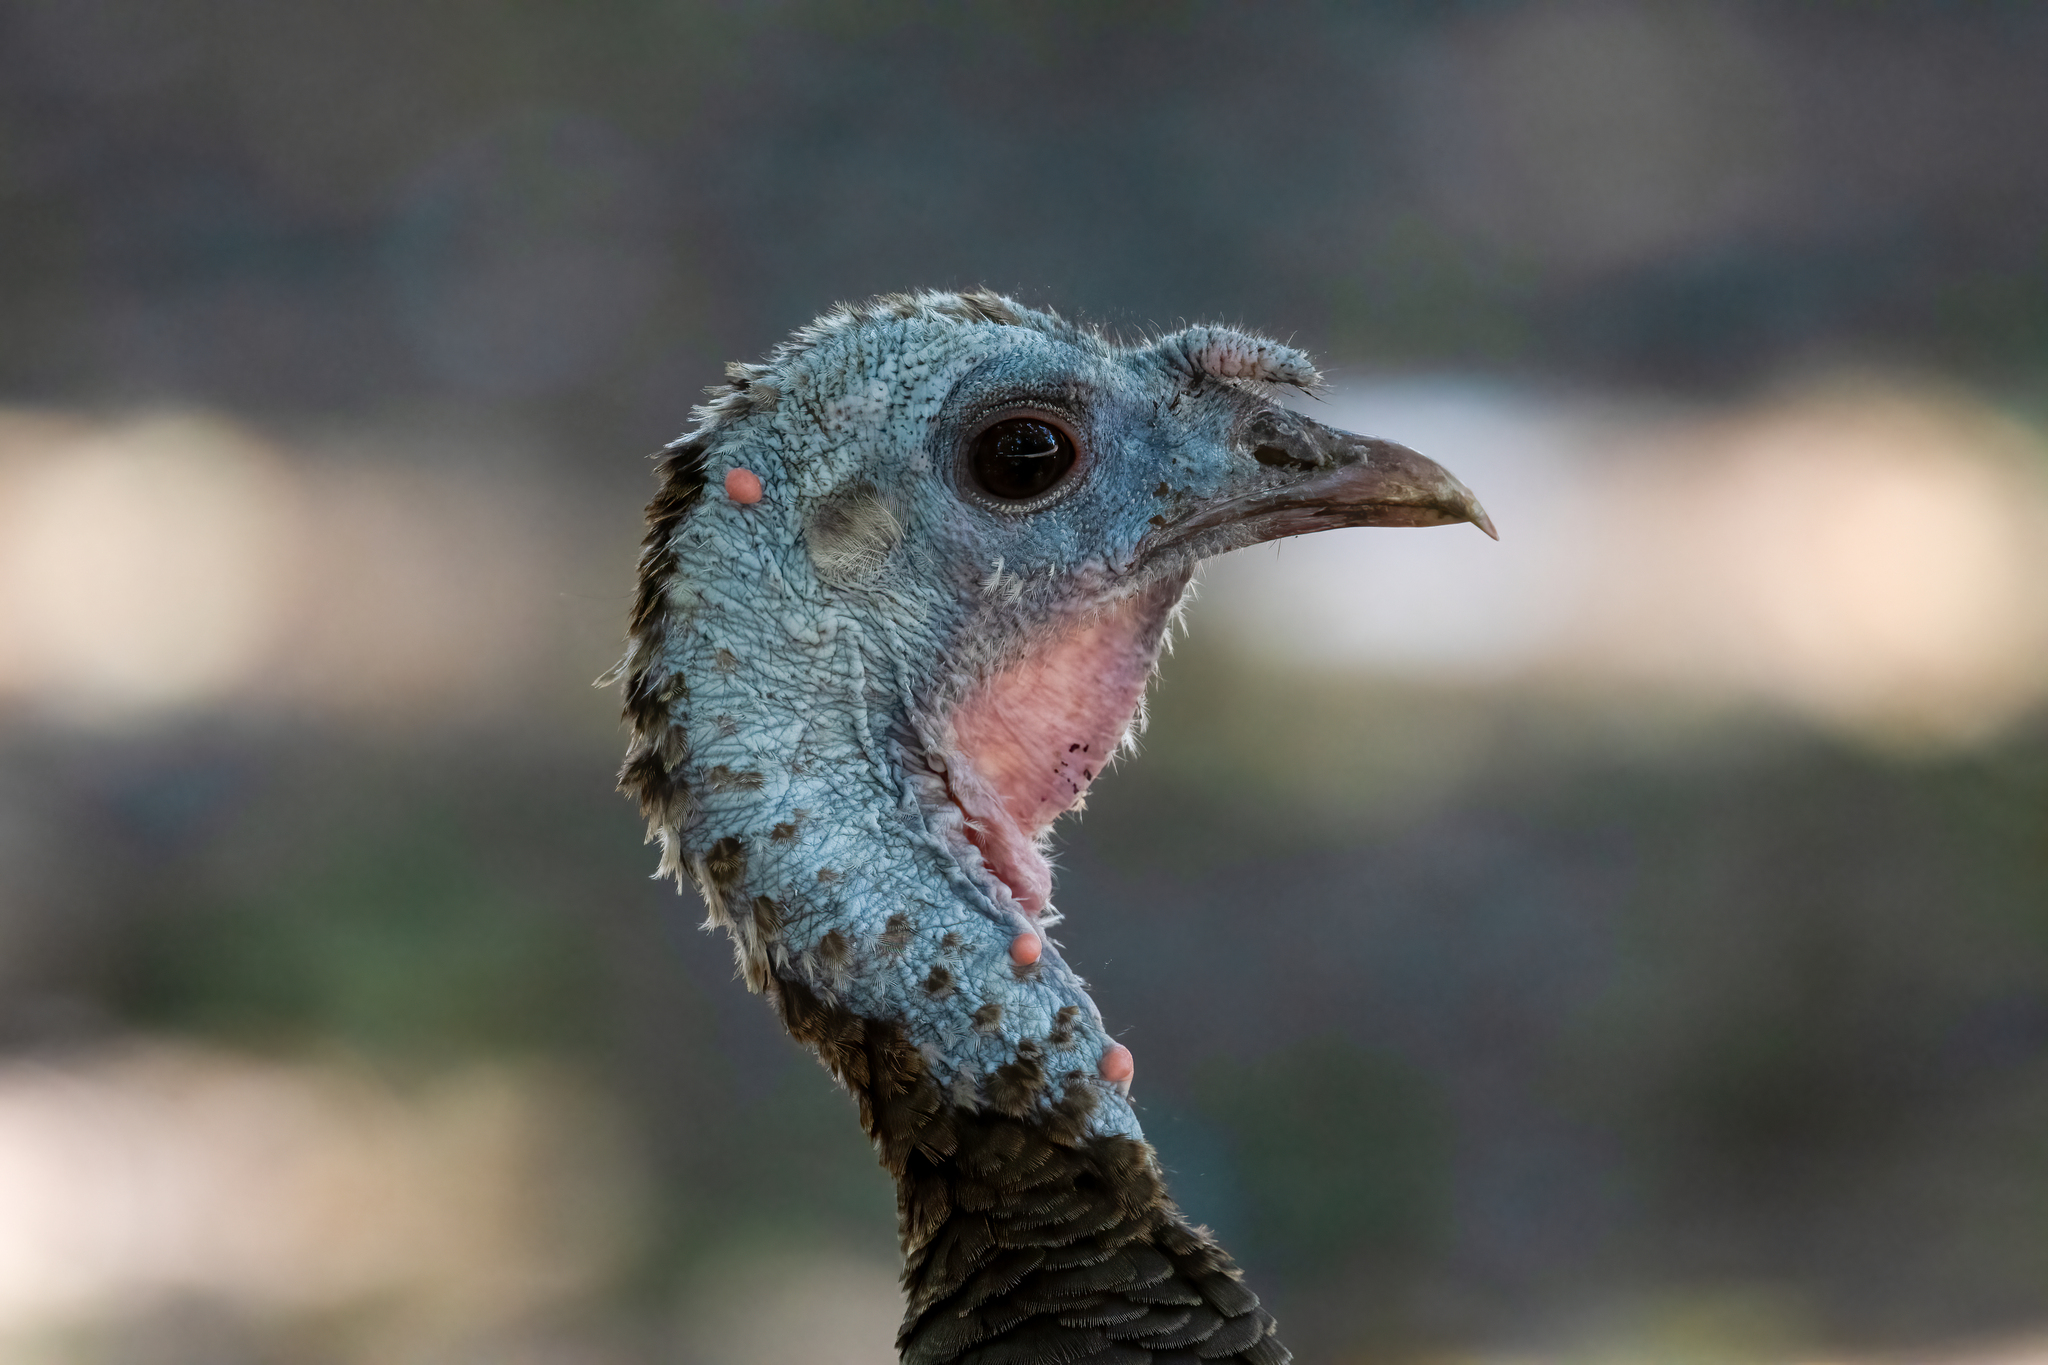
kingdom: Animalia
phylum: Chordata
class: Aves
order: Galliformes
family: Phasianidae
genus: Meleagris
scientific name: Meleagris gallopavo
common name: Wild turkey
